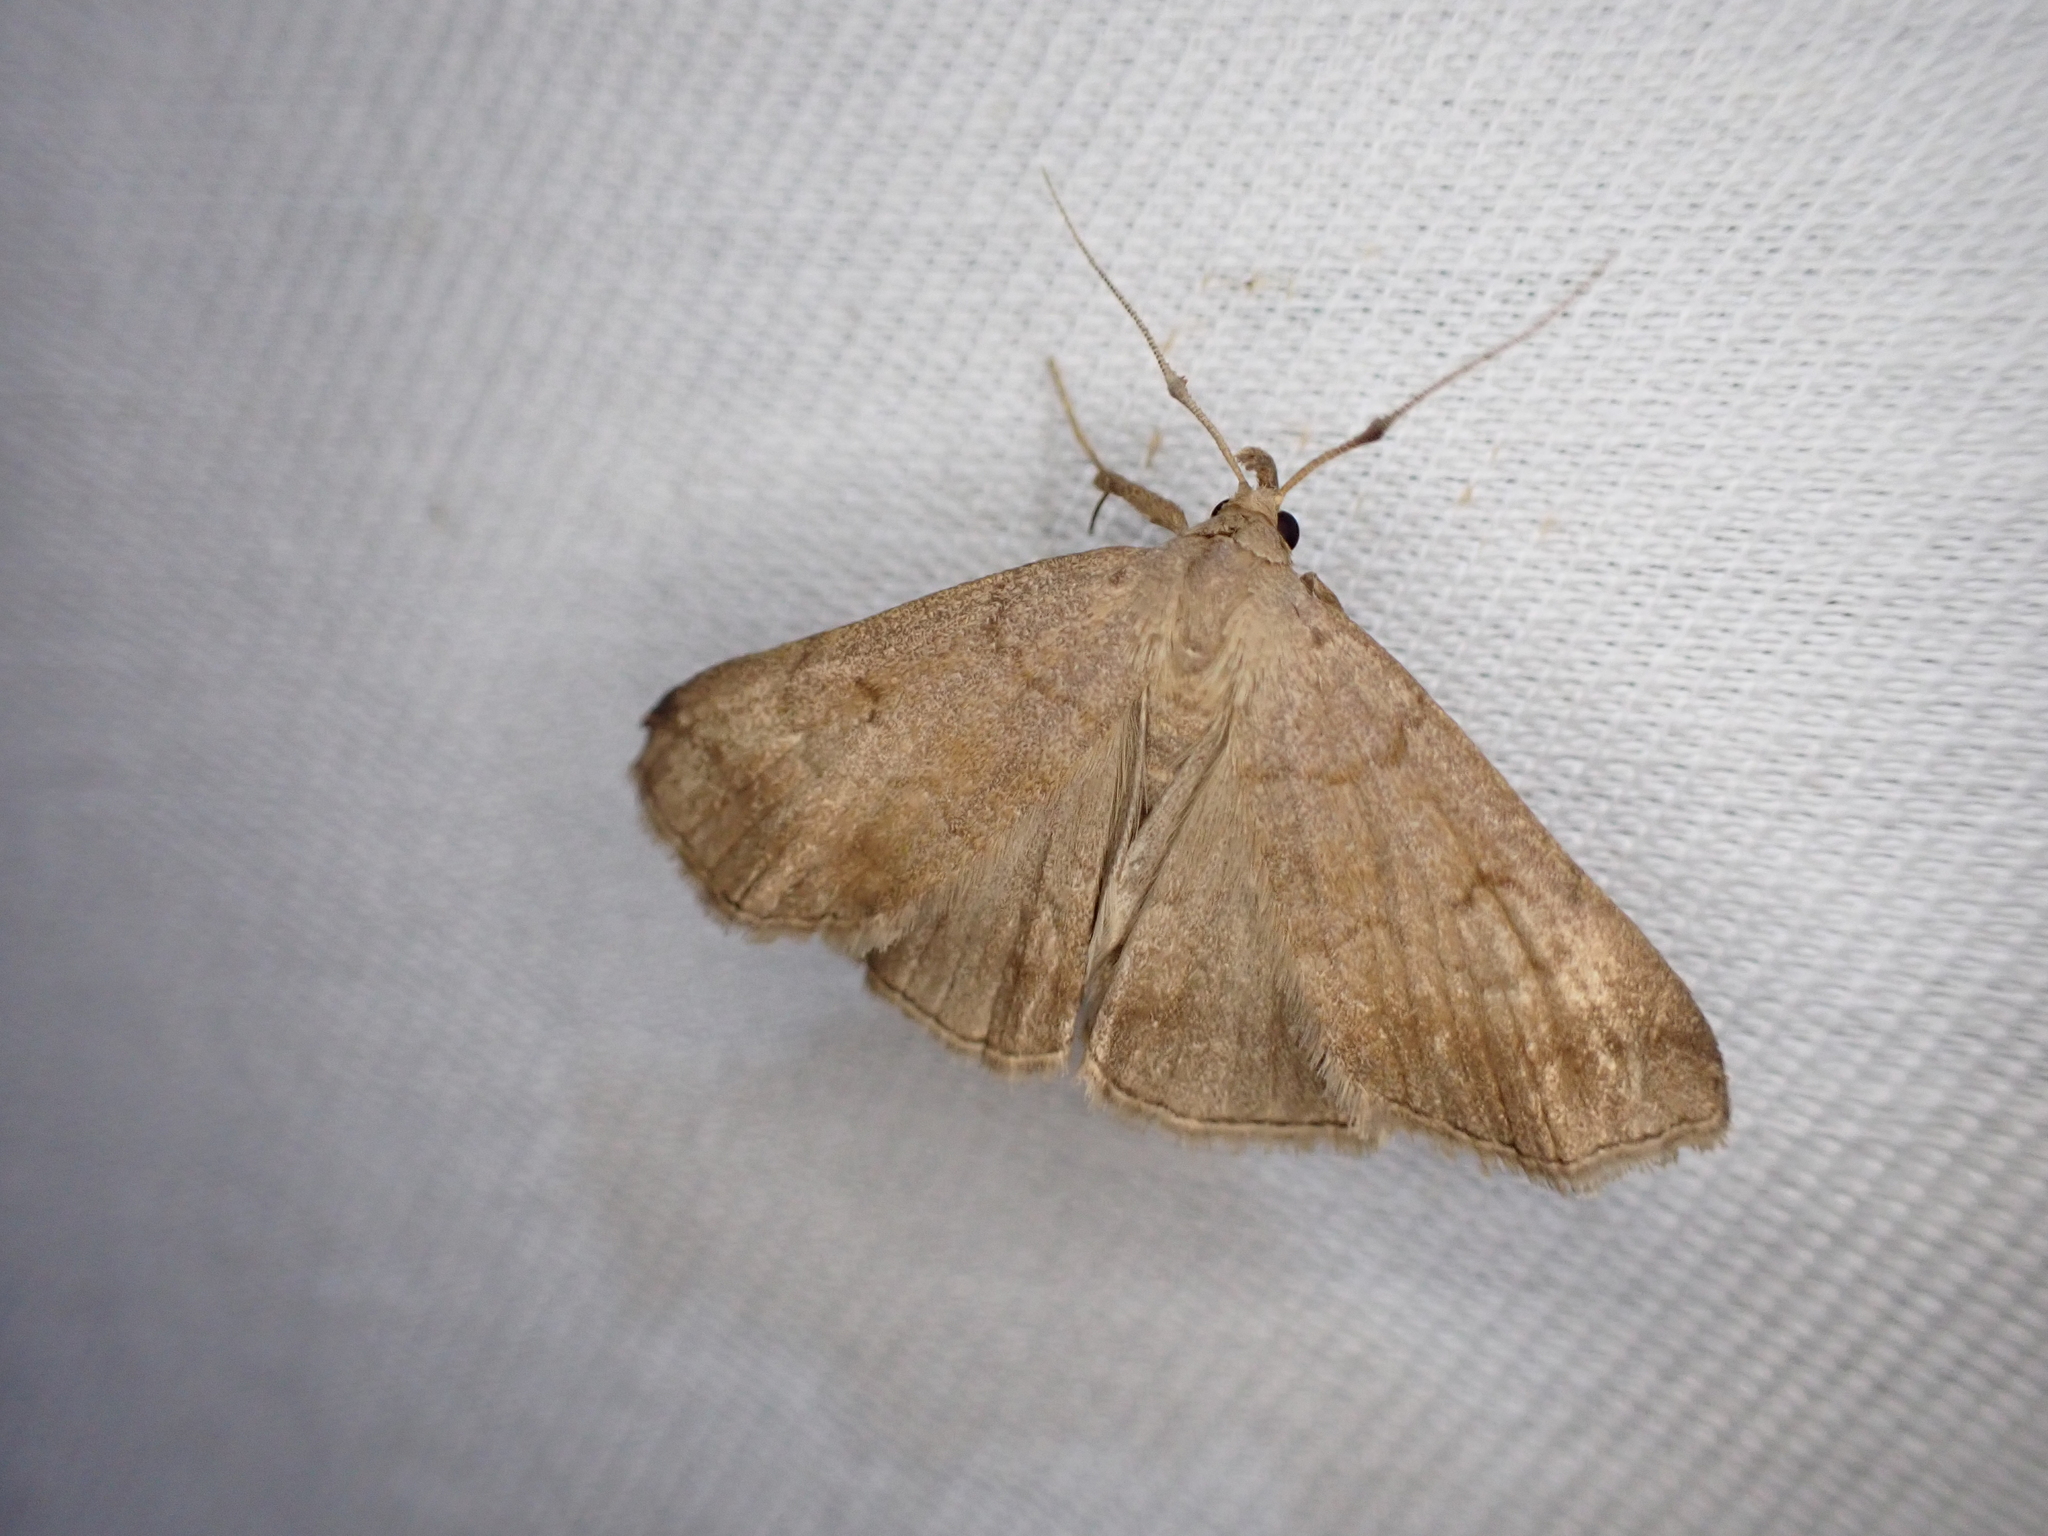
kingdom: Animalia
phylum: Arthropoda
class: Insecta
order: Lepidoptera
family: Erebidae
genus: Zanclognatha
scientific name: Zanclognatha lunalis
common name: Jubilee fan-foot
